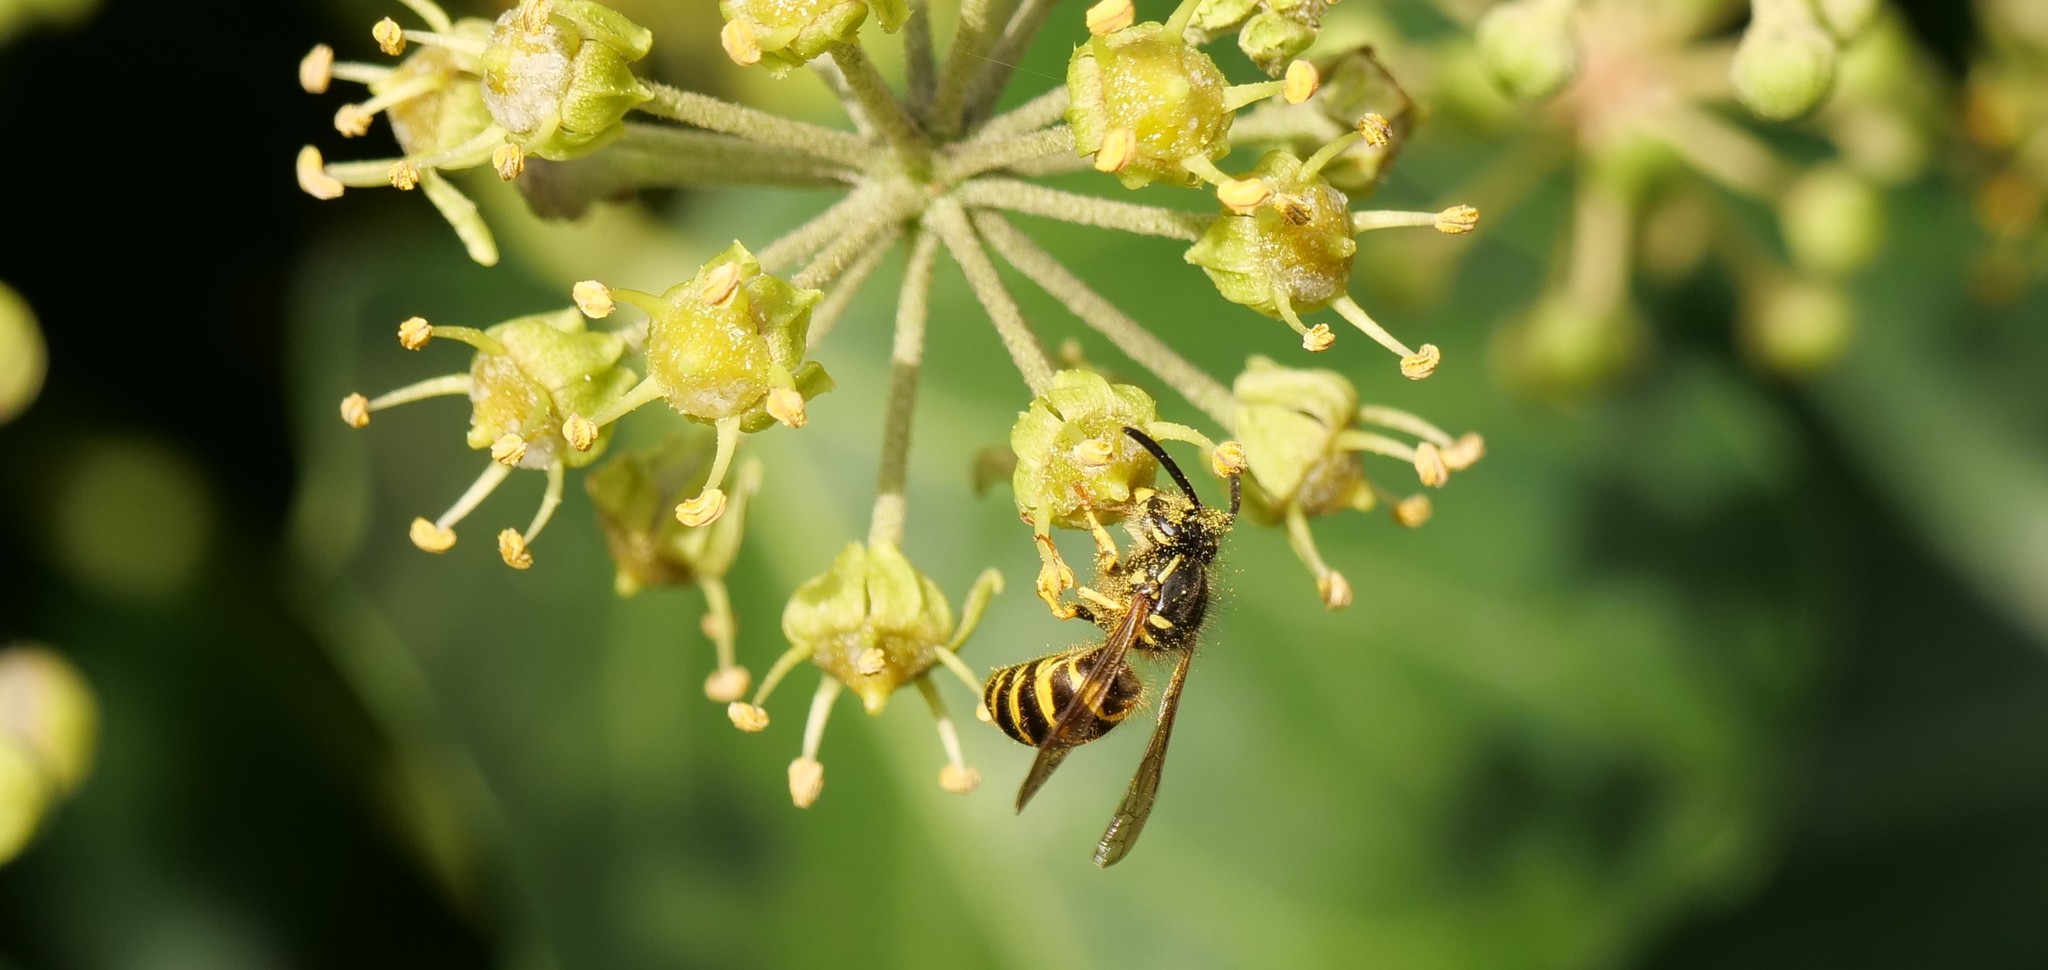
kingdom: Animalia
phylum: Arthropoda
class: Insecta
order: Hymenoptera
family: Vespidae
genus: Vespula
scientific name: Vespula alascensis
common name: Alaska yellowjacket
